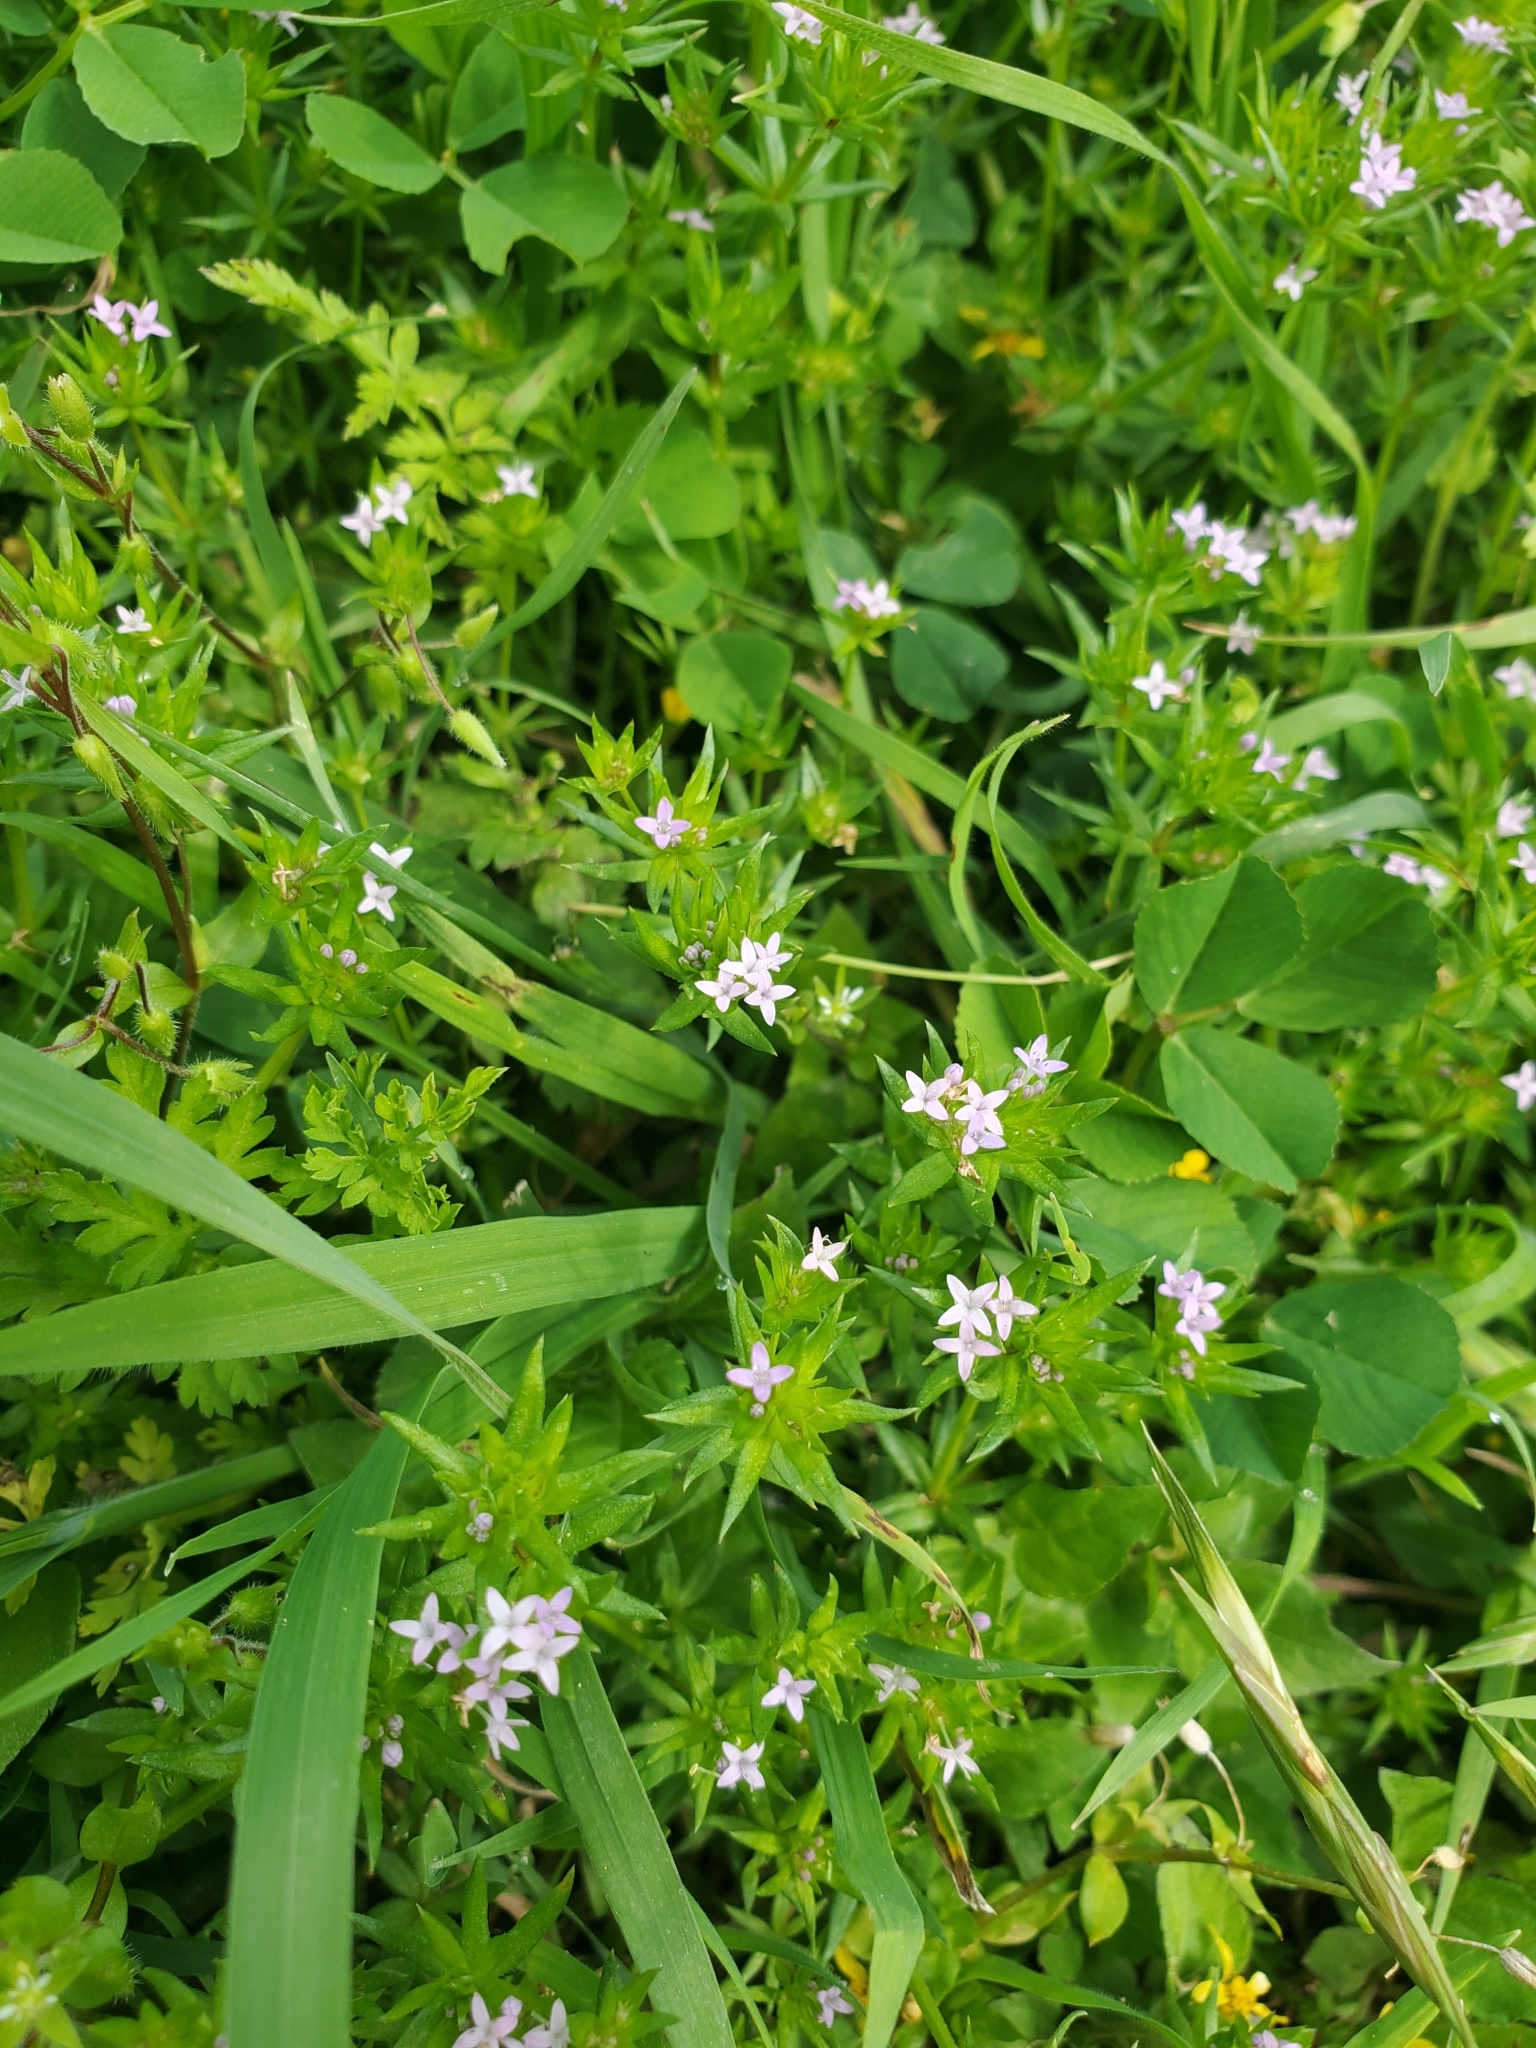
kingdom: Plantae
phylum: Tracheophyta
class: Magnoliopsida
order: Gentianales
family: Rubiaceae
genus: Sherardia
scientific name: Sherardia arvensis
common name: Field madder
